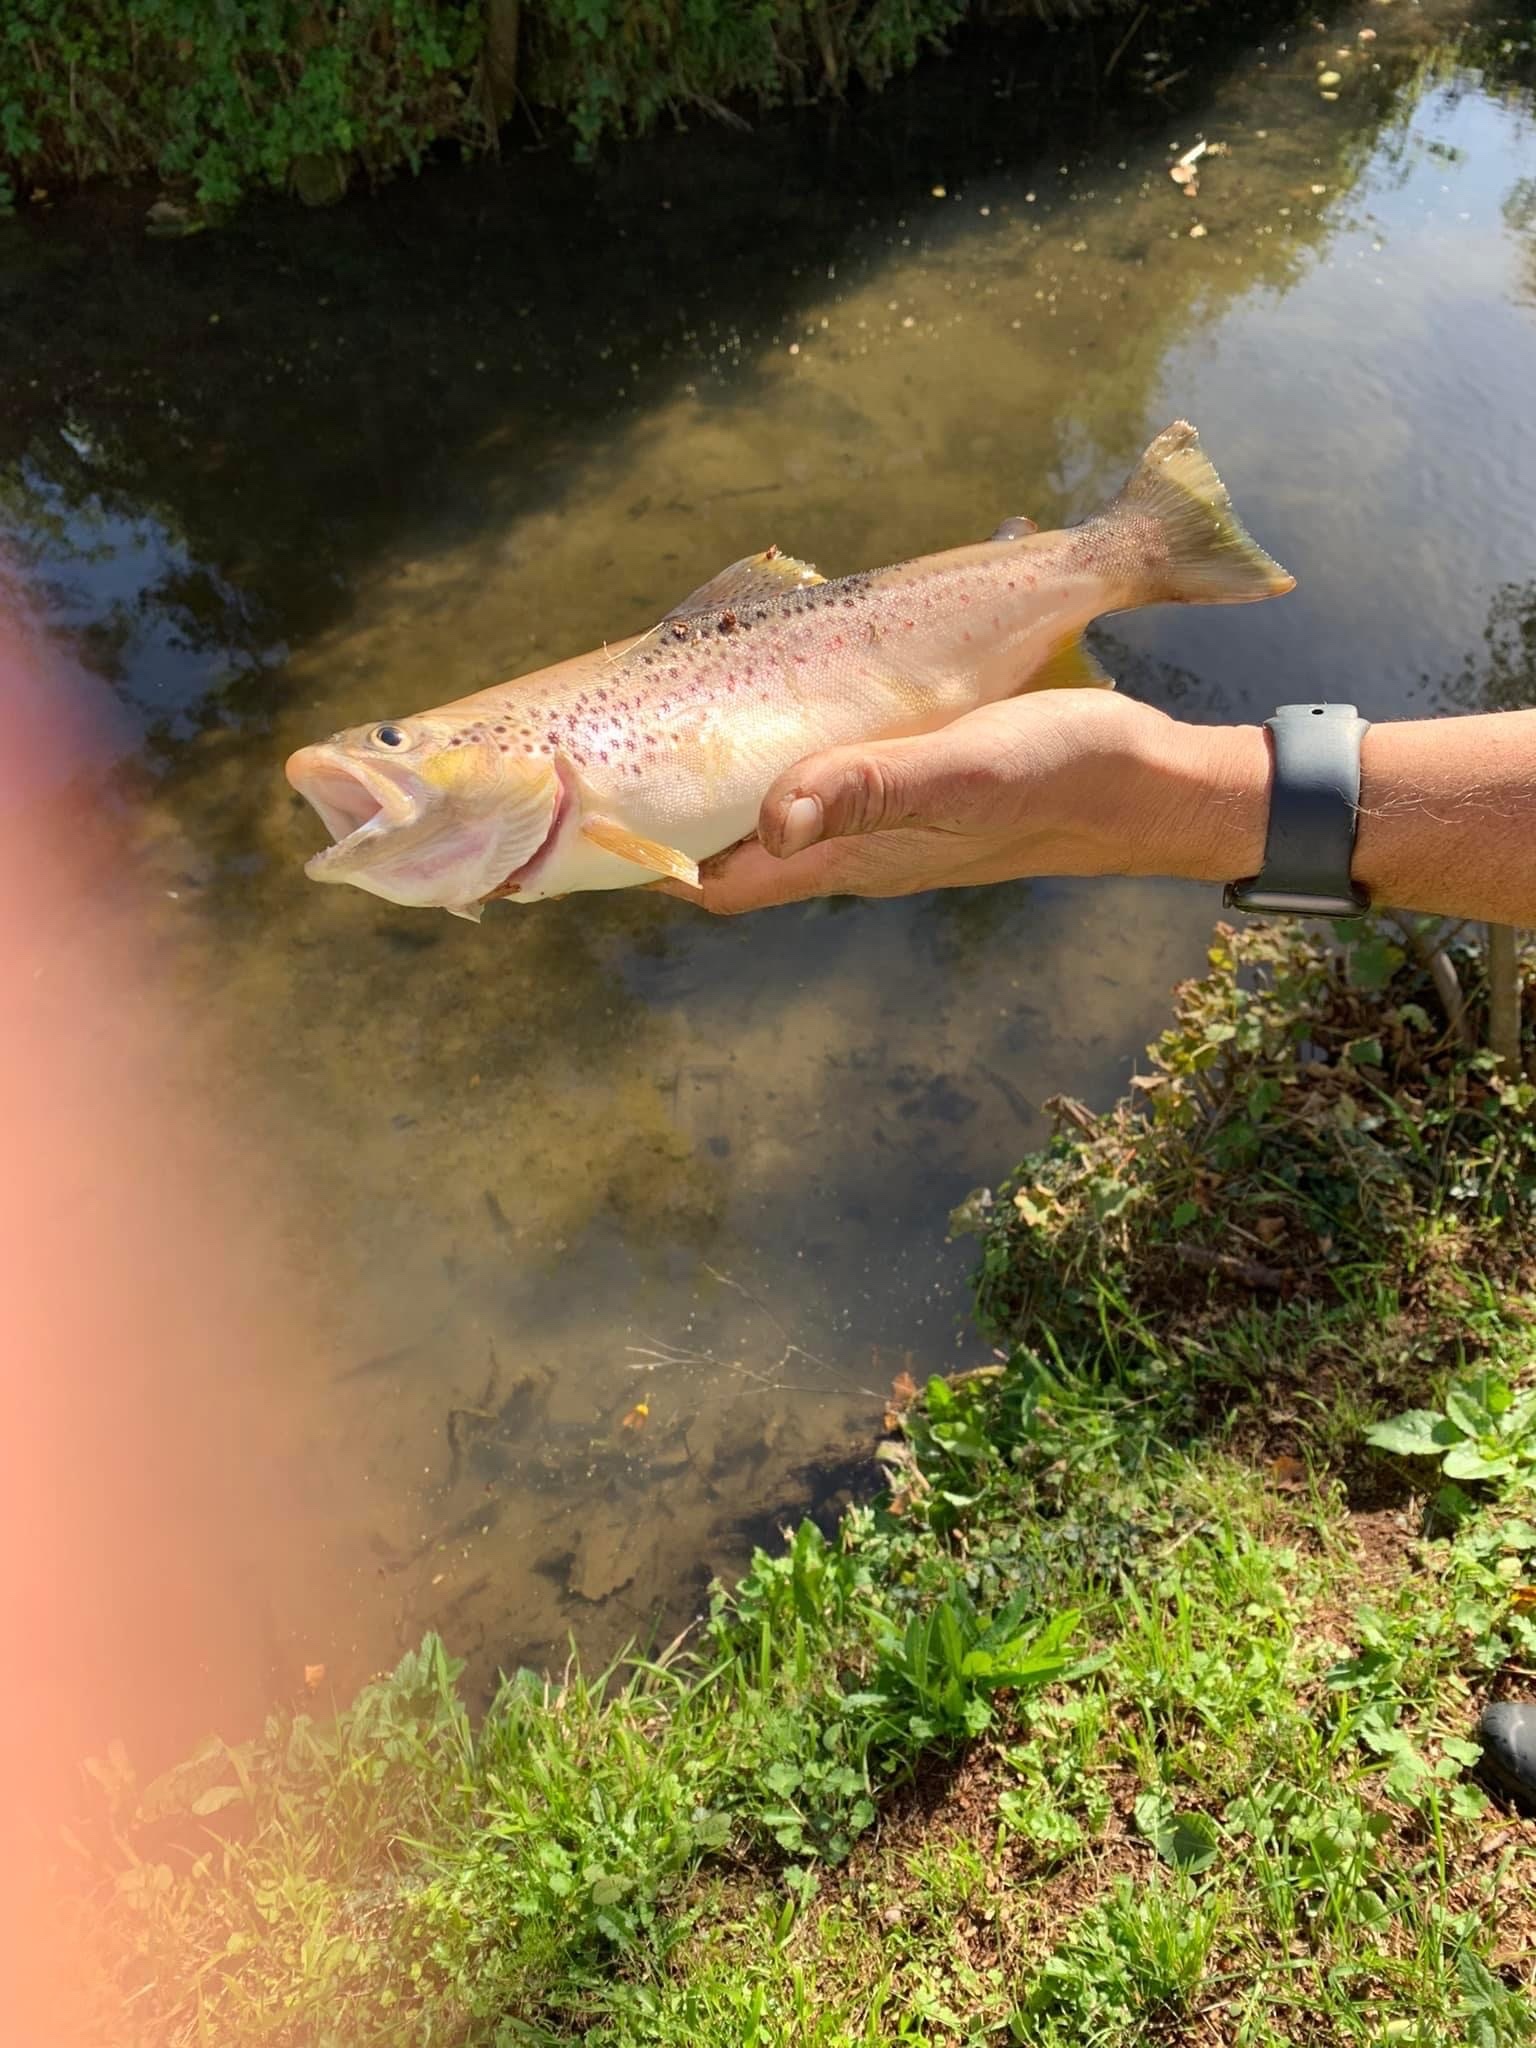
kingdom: Animalia
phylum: Chordata
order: Salmoniformes
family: Salmonidae
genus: Salmo
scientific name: Salmo trutta
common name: Brown trout
